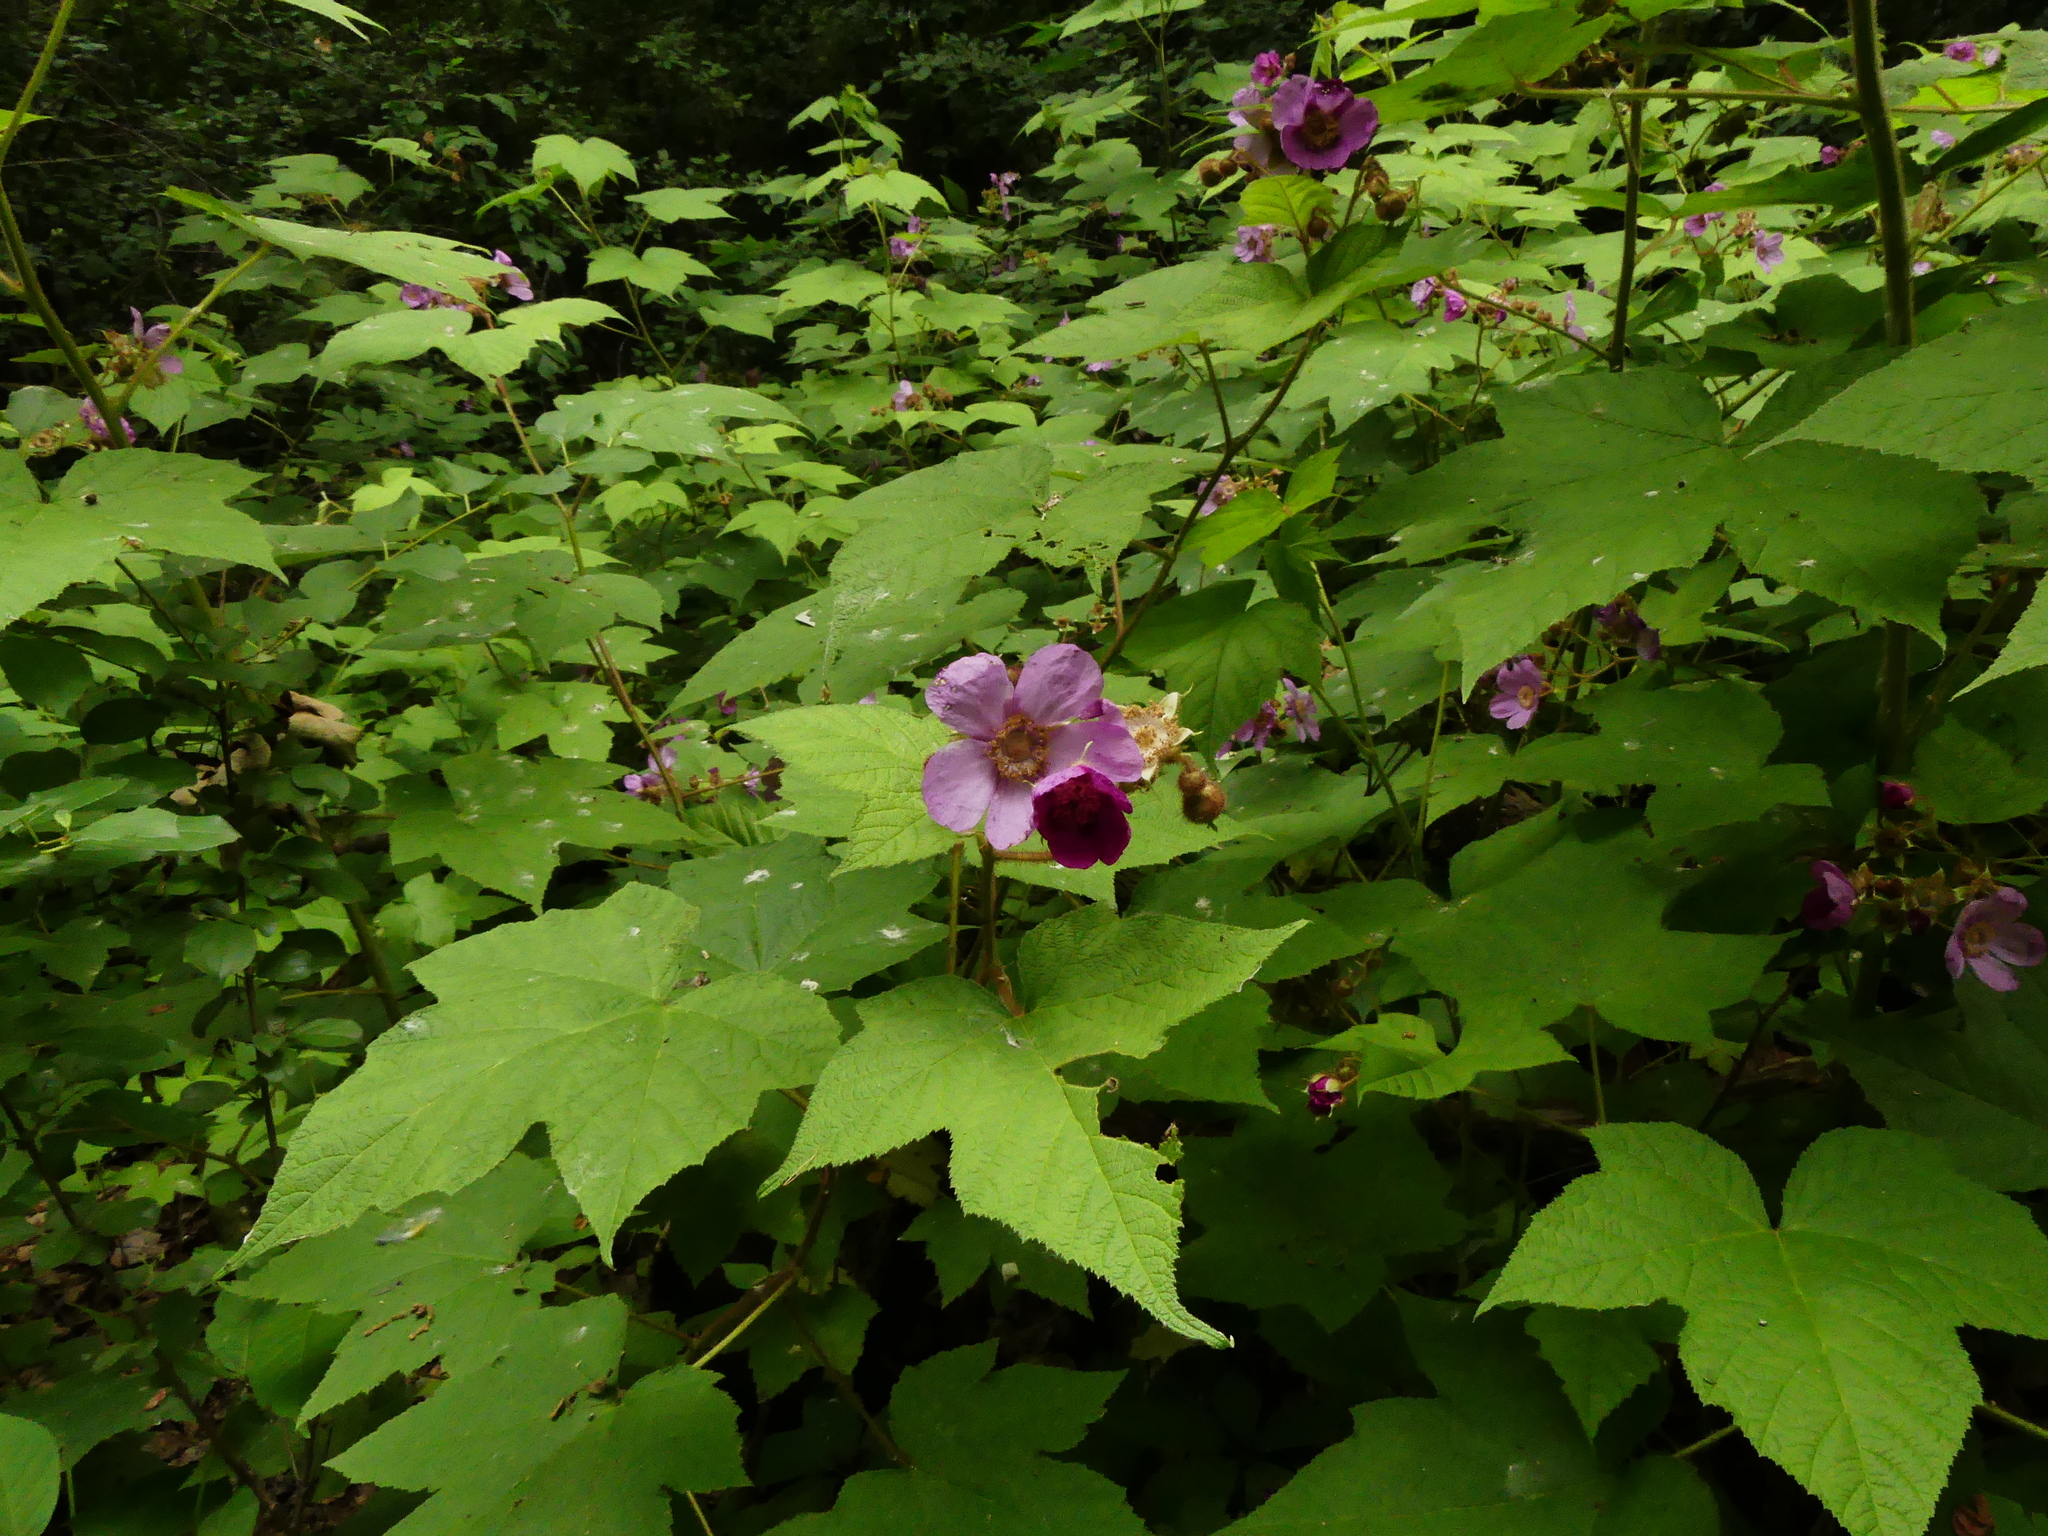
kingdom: Plantae
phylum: Tracheophyta
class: Magnoliopsida
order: Rosales
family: Rosaceae
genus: Rubus
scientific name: Rubus odoratus
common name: Purple-flowered raspberry
